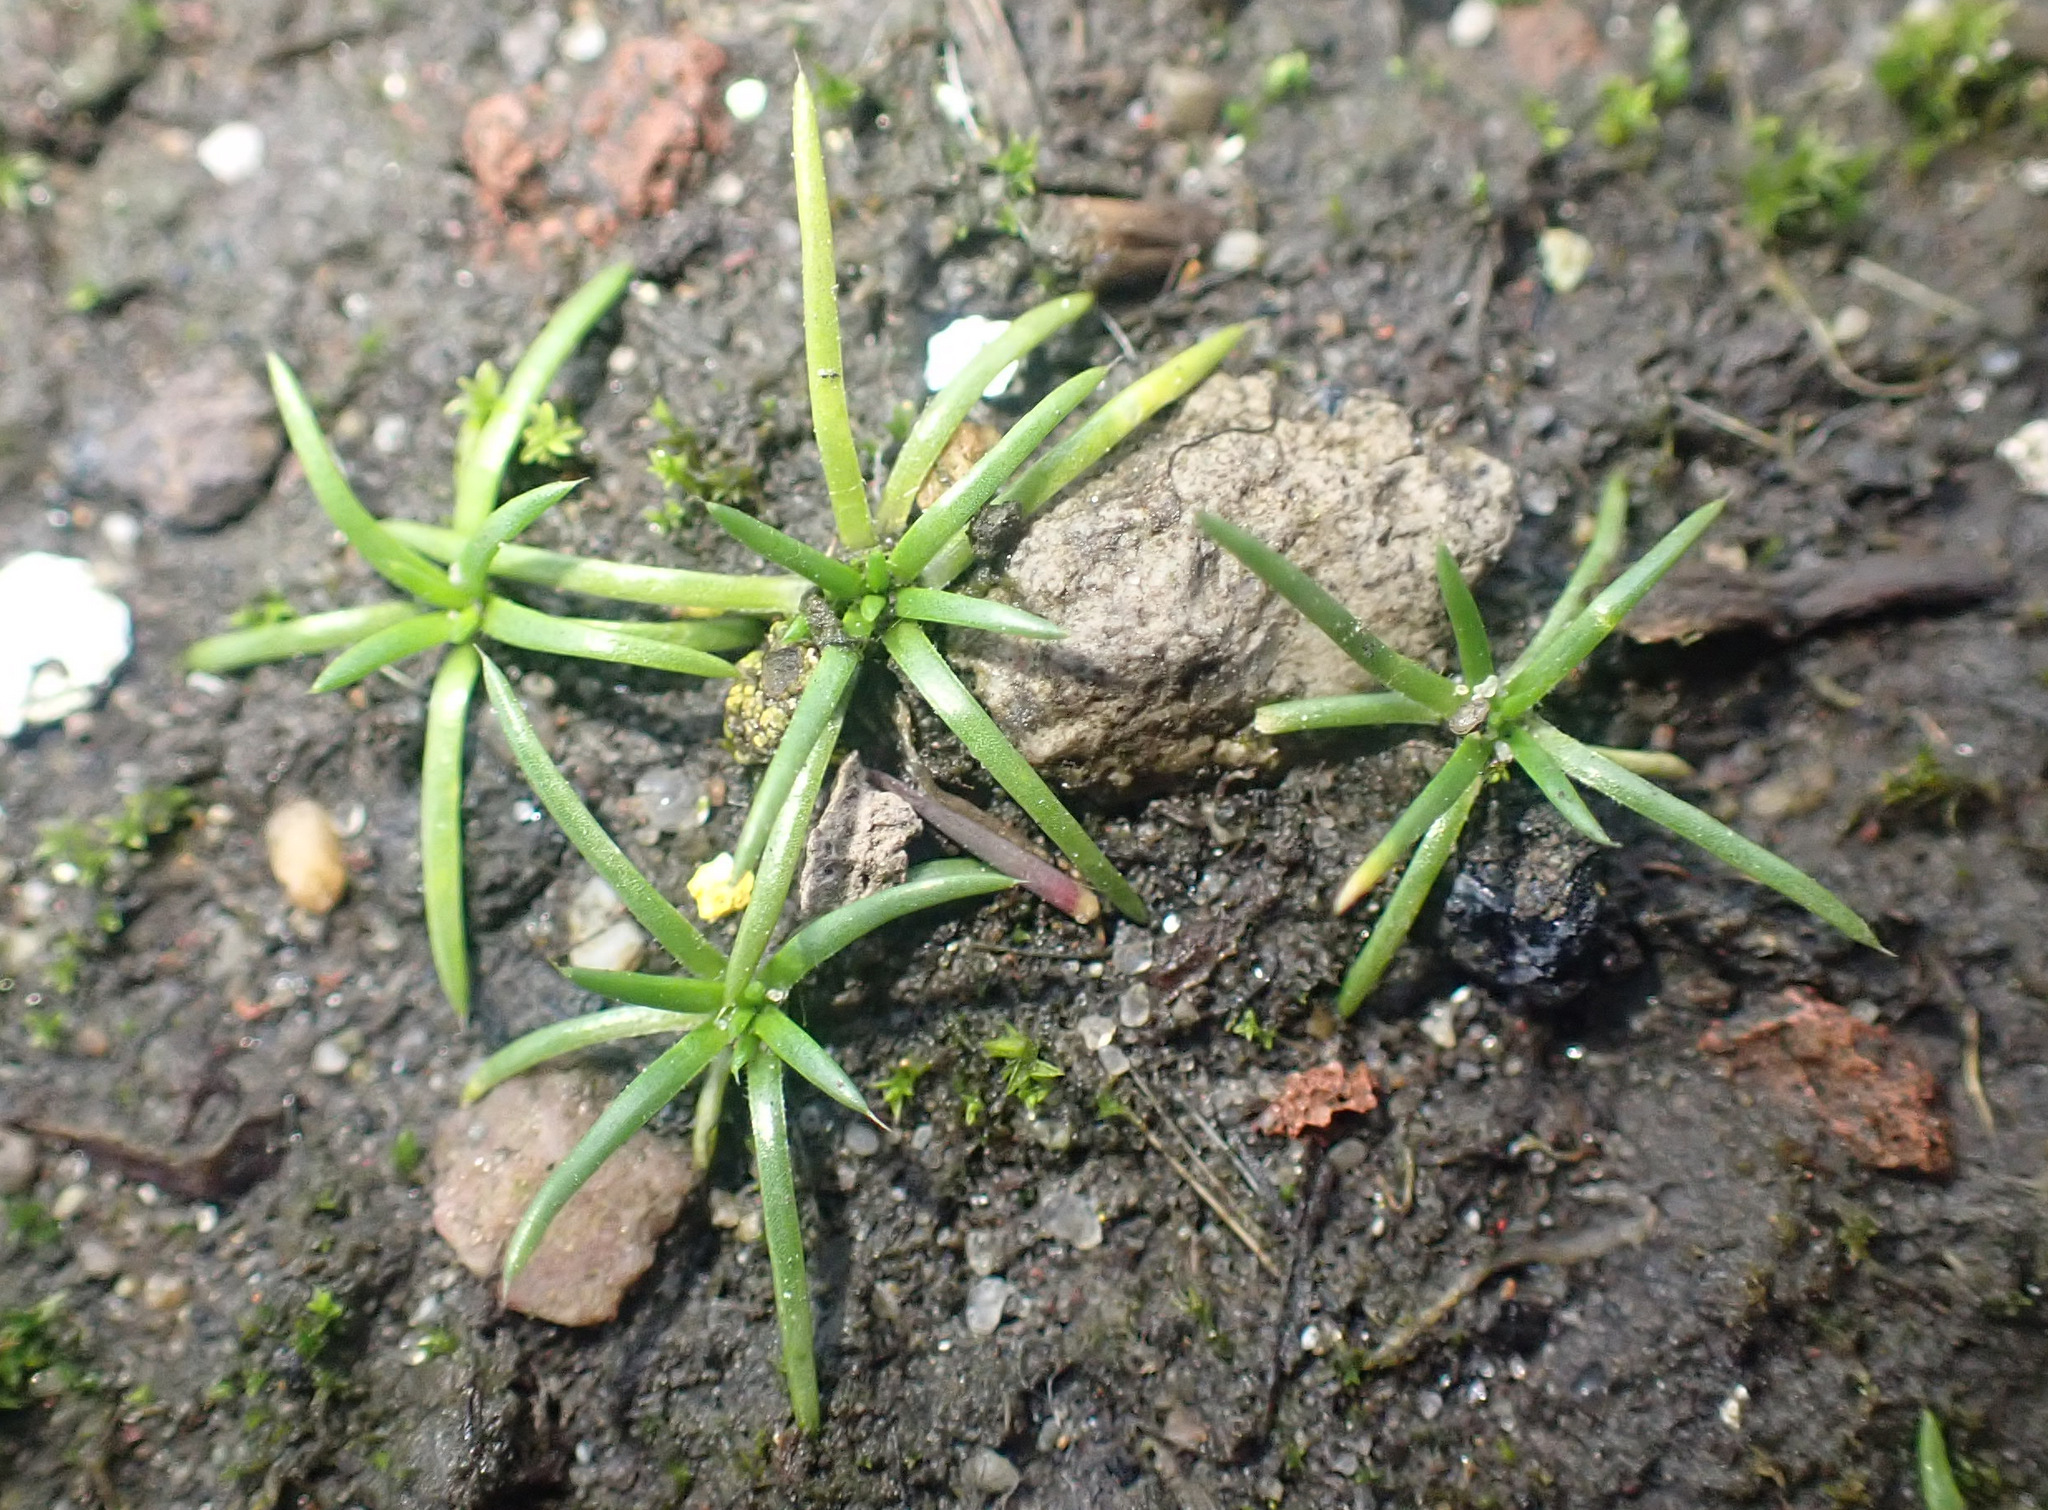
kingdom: Plantae
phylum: Tracheophyta
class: Magnoliopsida
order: Caryophyllales
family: Caryophyllaceae
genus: Sagina
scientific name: Sagina procumbens
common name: Procumbent pearlwort
